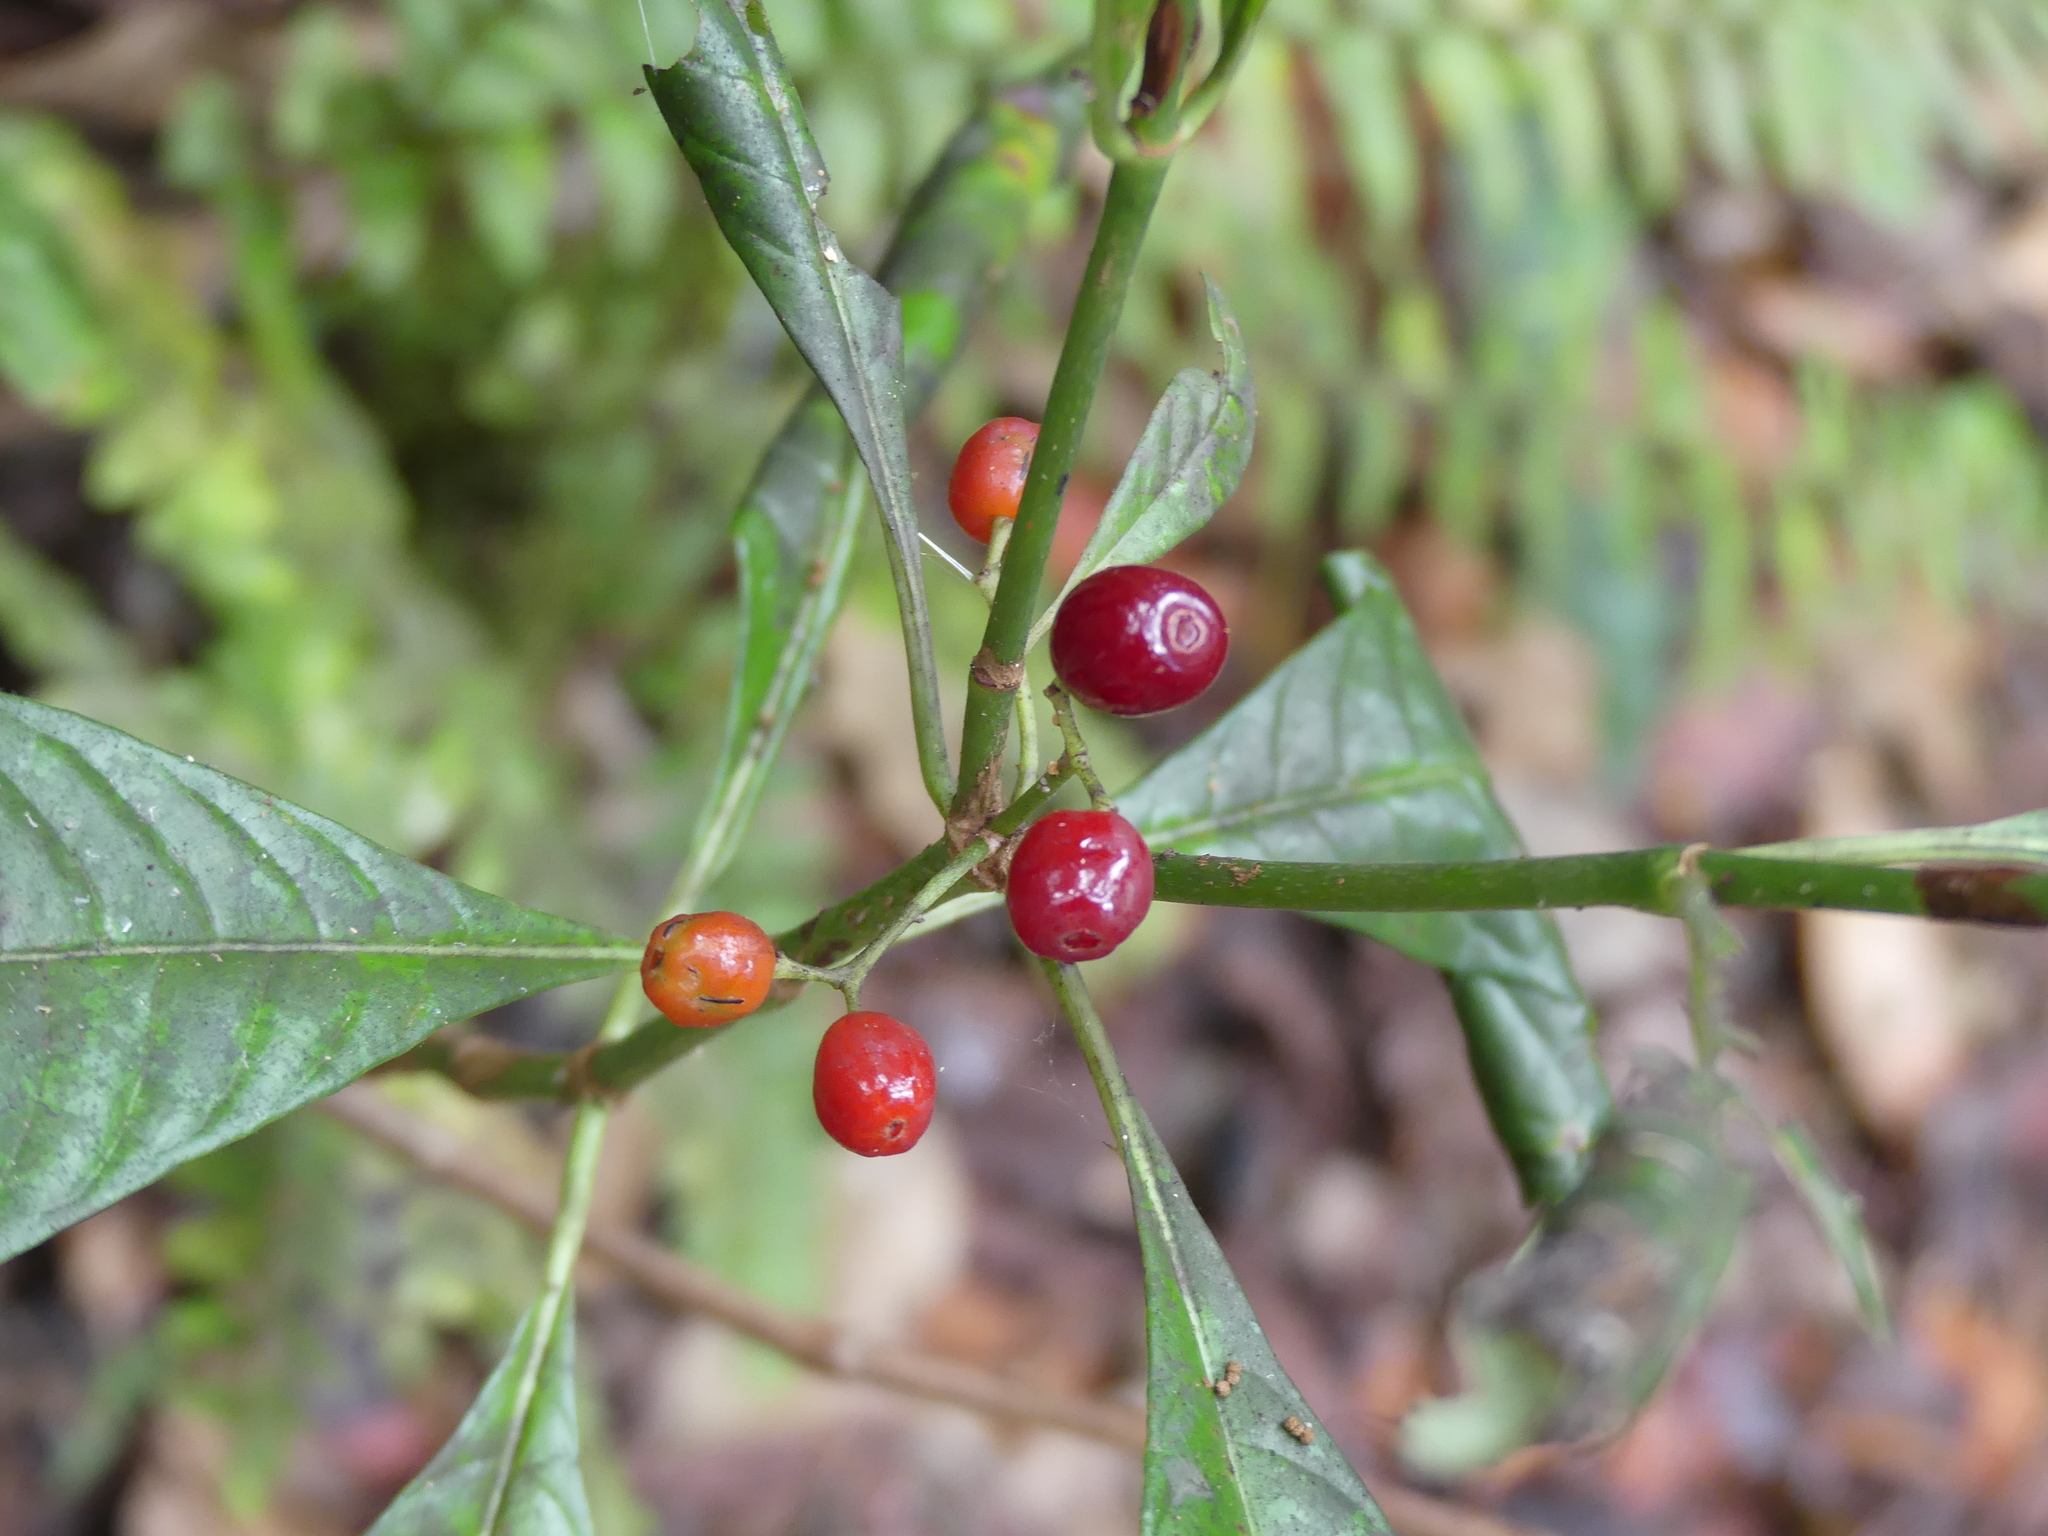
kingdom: Plantae
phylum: Tracheophyta
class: Magnoliopsida
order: Gentianales
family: Rubiaceae
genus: Psychotria
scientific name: Psychotria nervosa
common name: Bastard cankerberry
